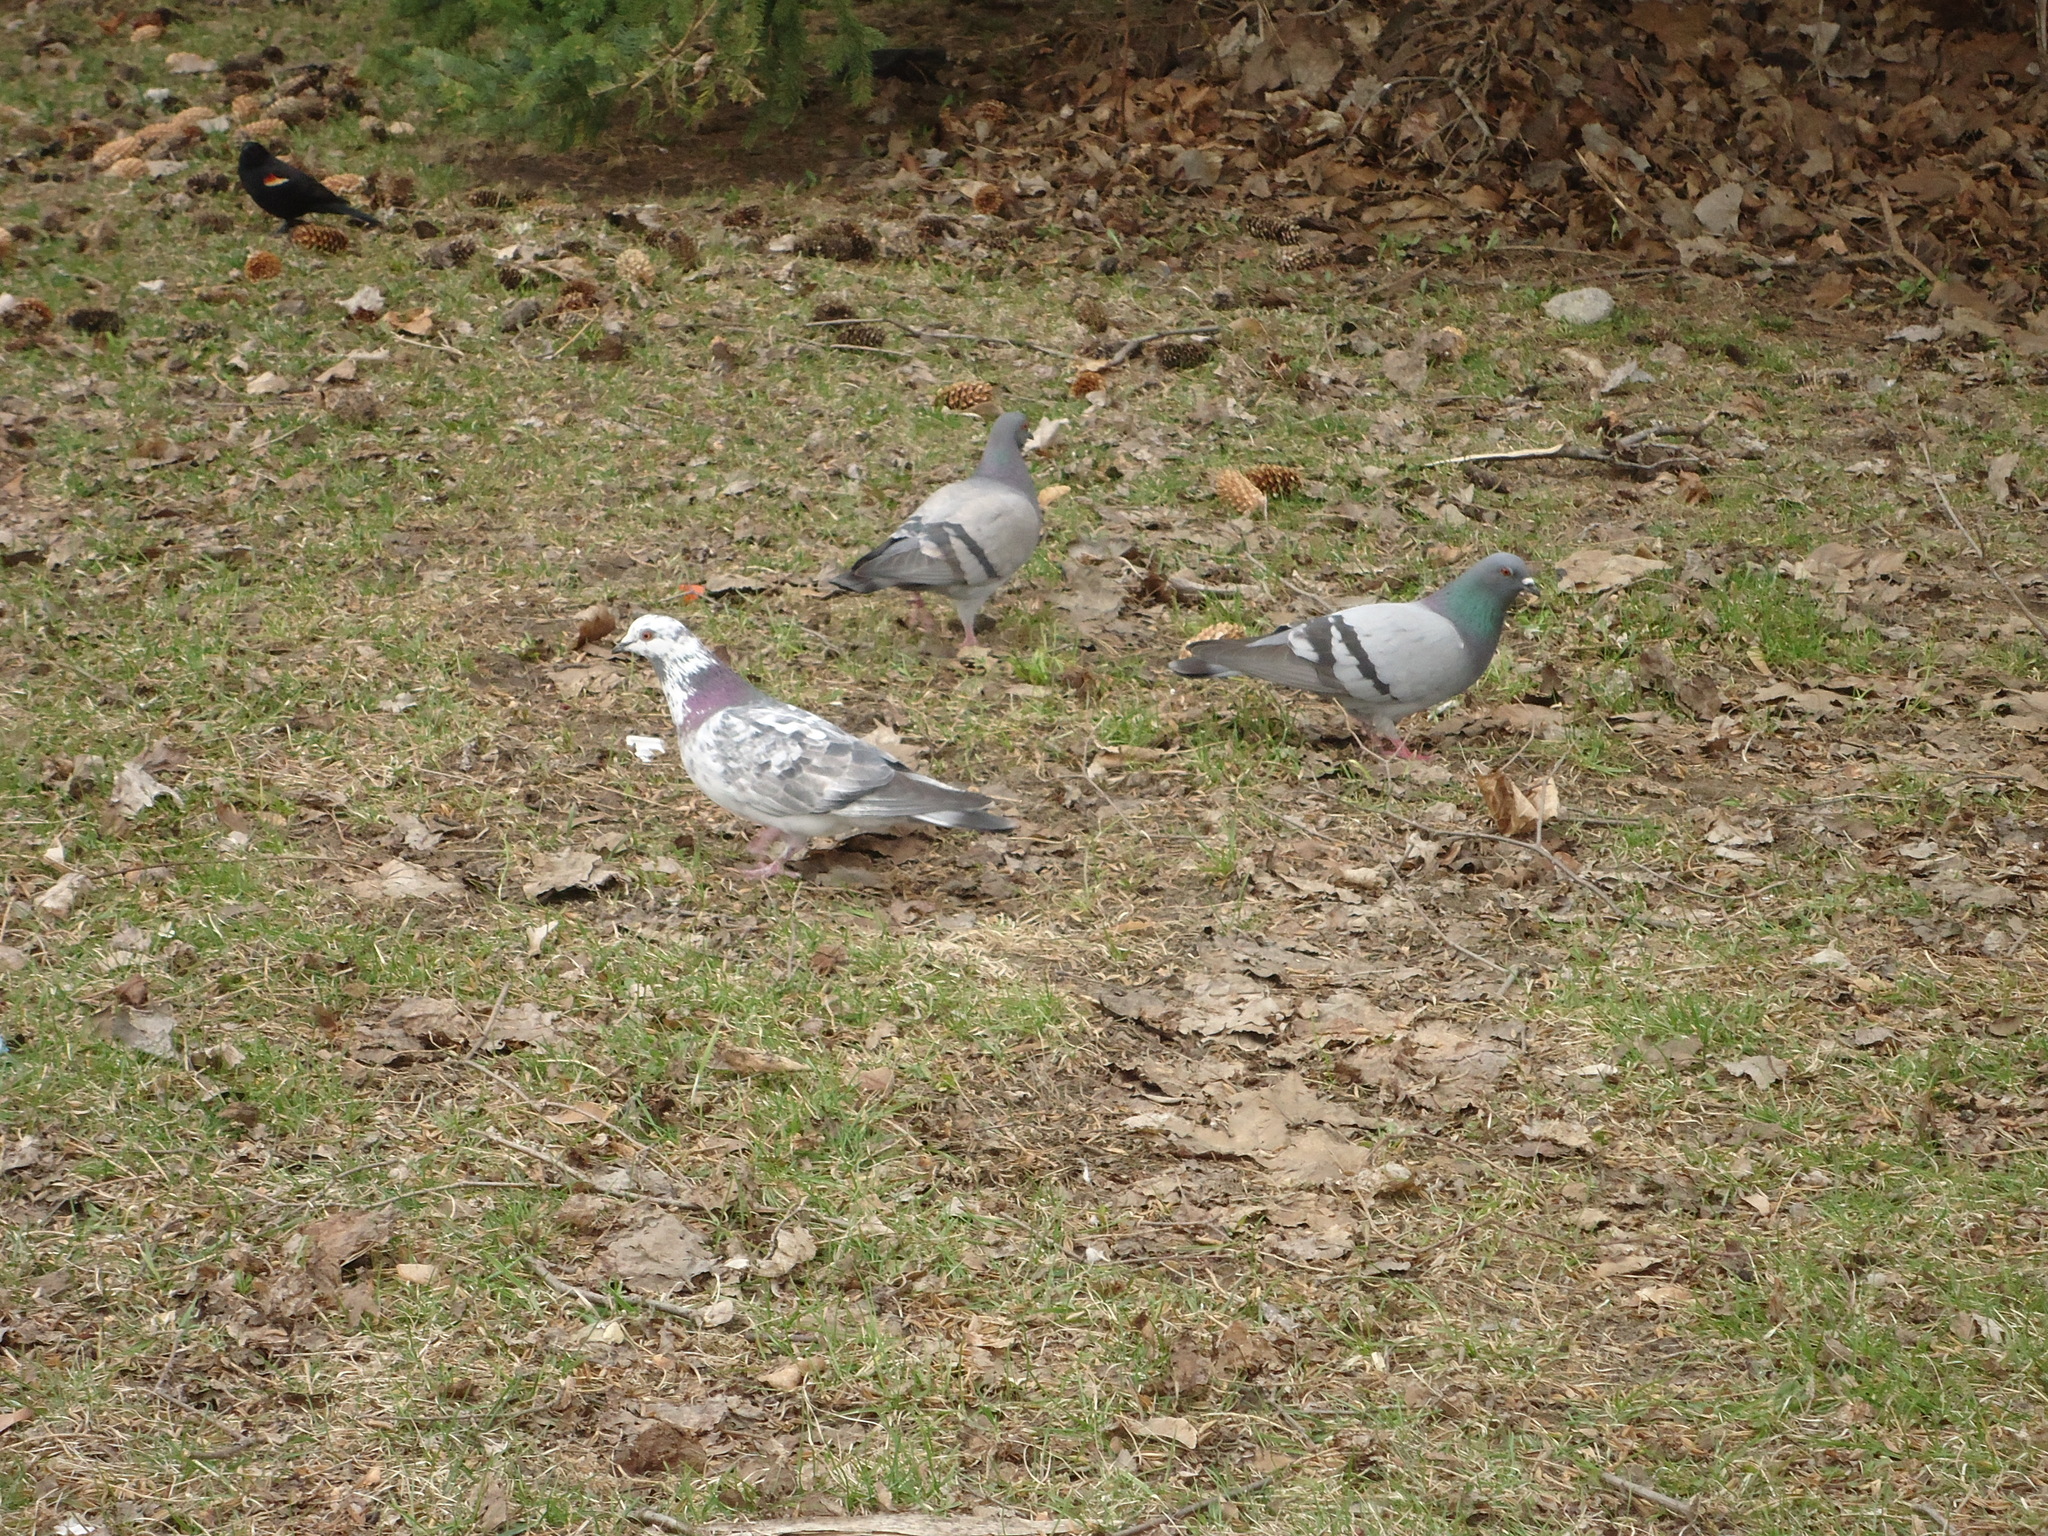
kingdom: Animalia
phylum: Chordata
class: Aves
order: Columbiformes
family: Columbidae
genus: Columba
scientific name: Columba livia
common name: Rock pigeon
